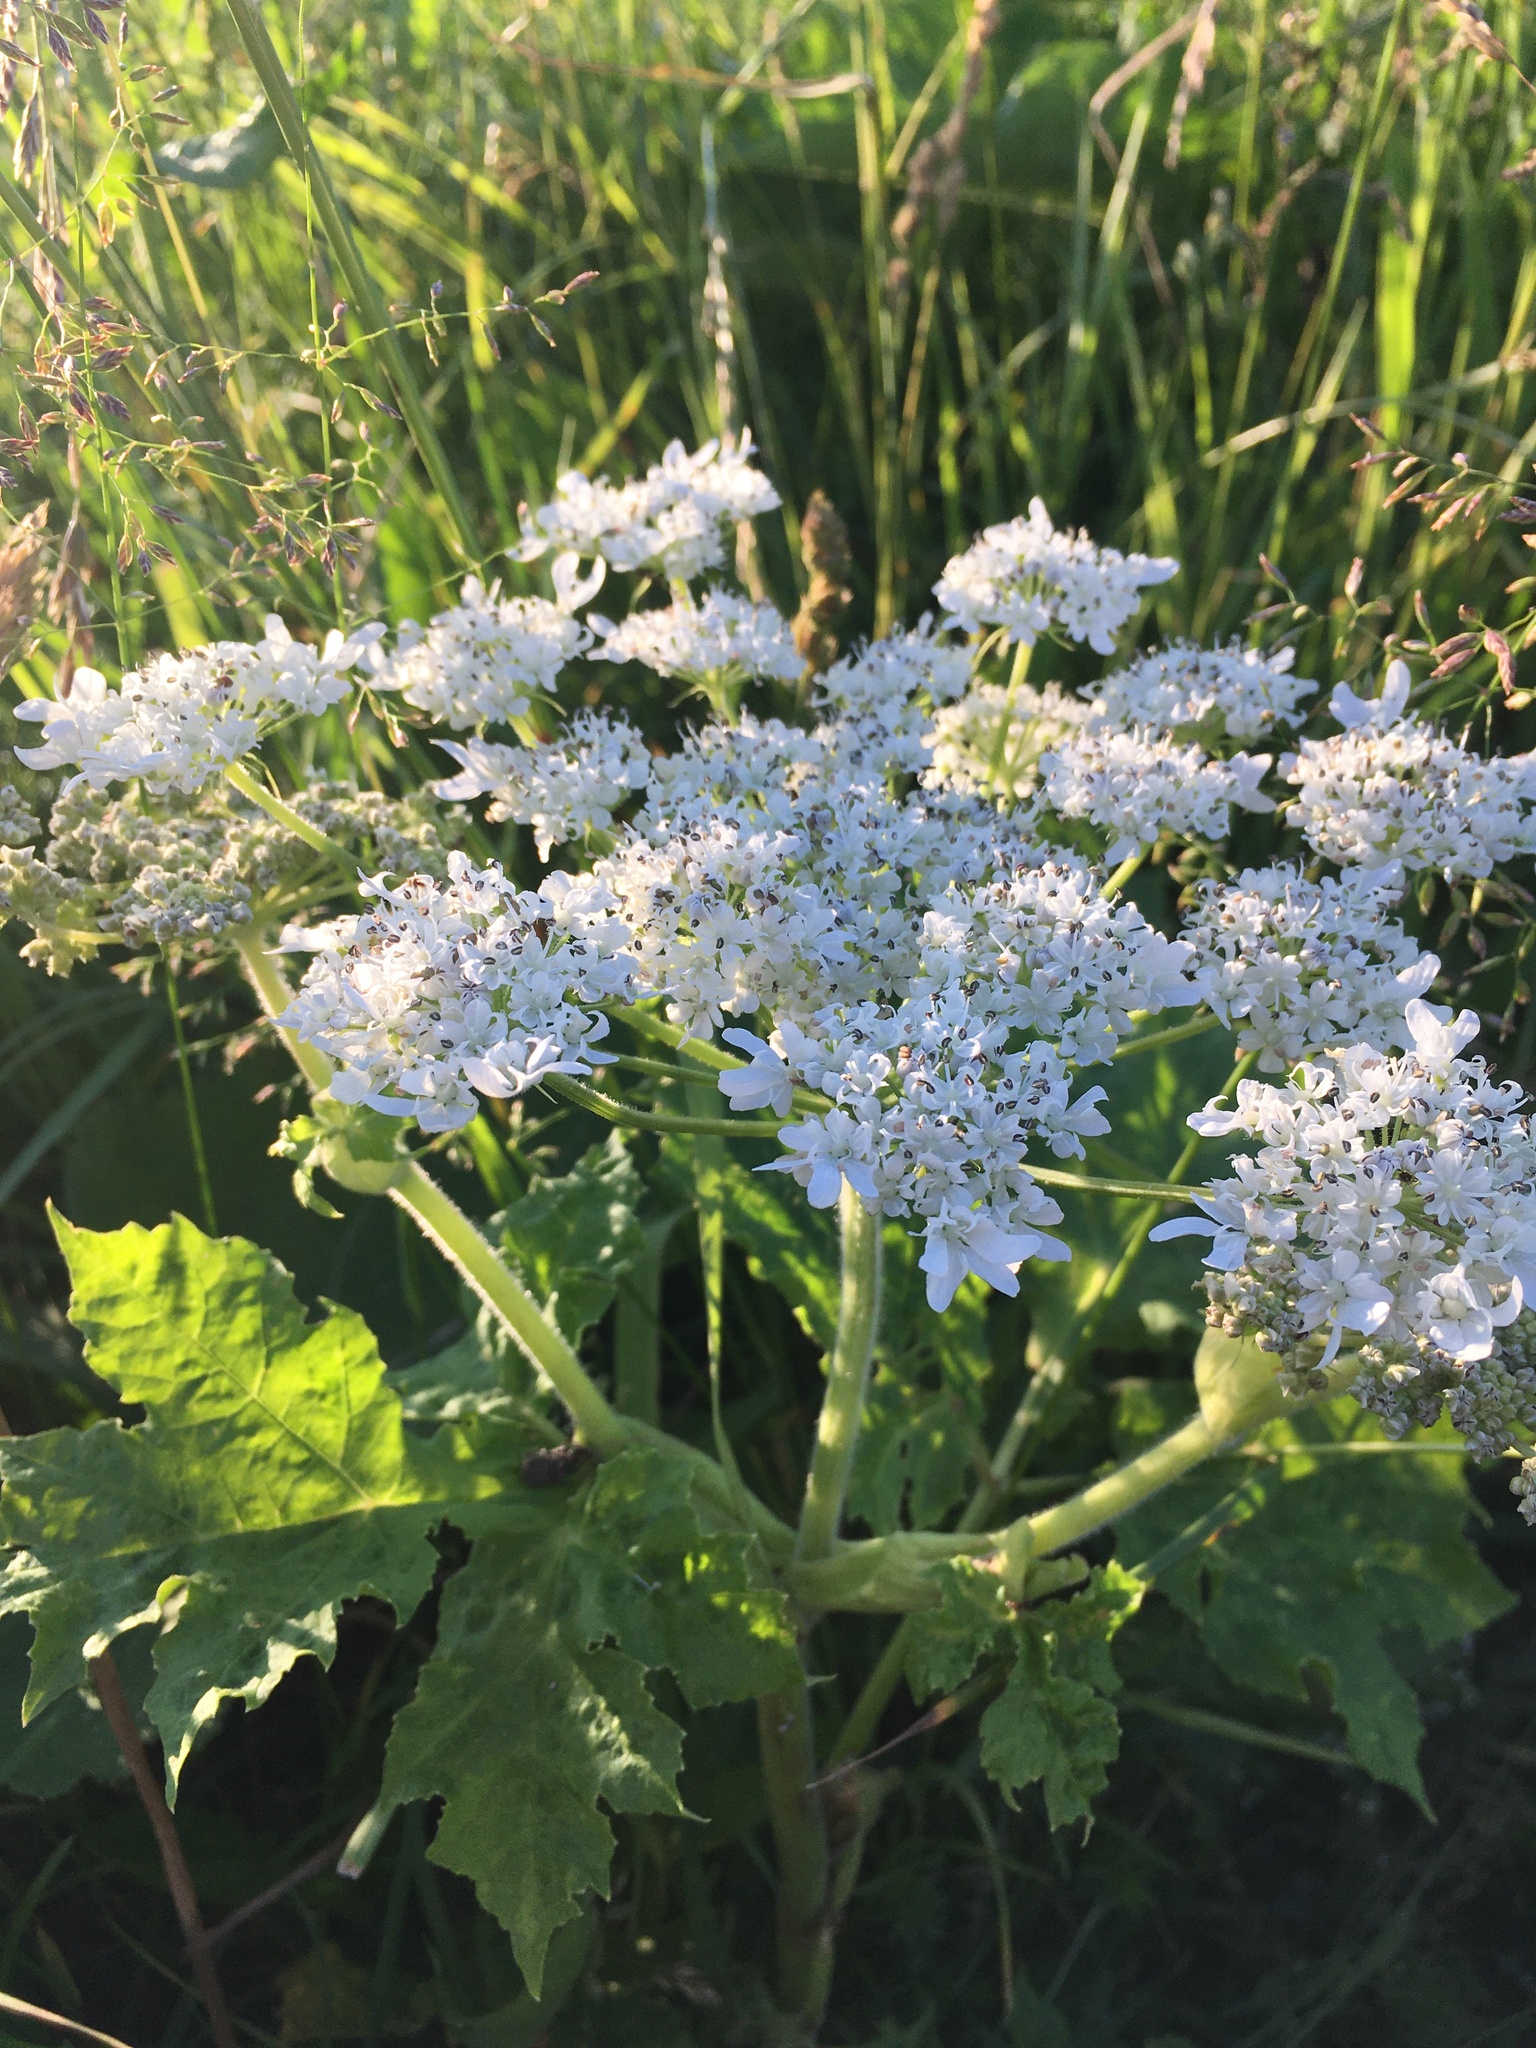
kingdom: Plantae
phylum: Tracheophyta
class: Magnoliopsida
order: Apiales
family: Apiaceae
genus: Heracleum
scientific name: Heracleum sosnowskyi
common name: Sosnowsky's hogweed
